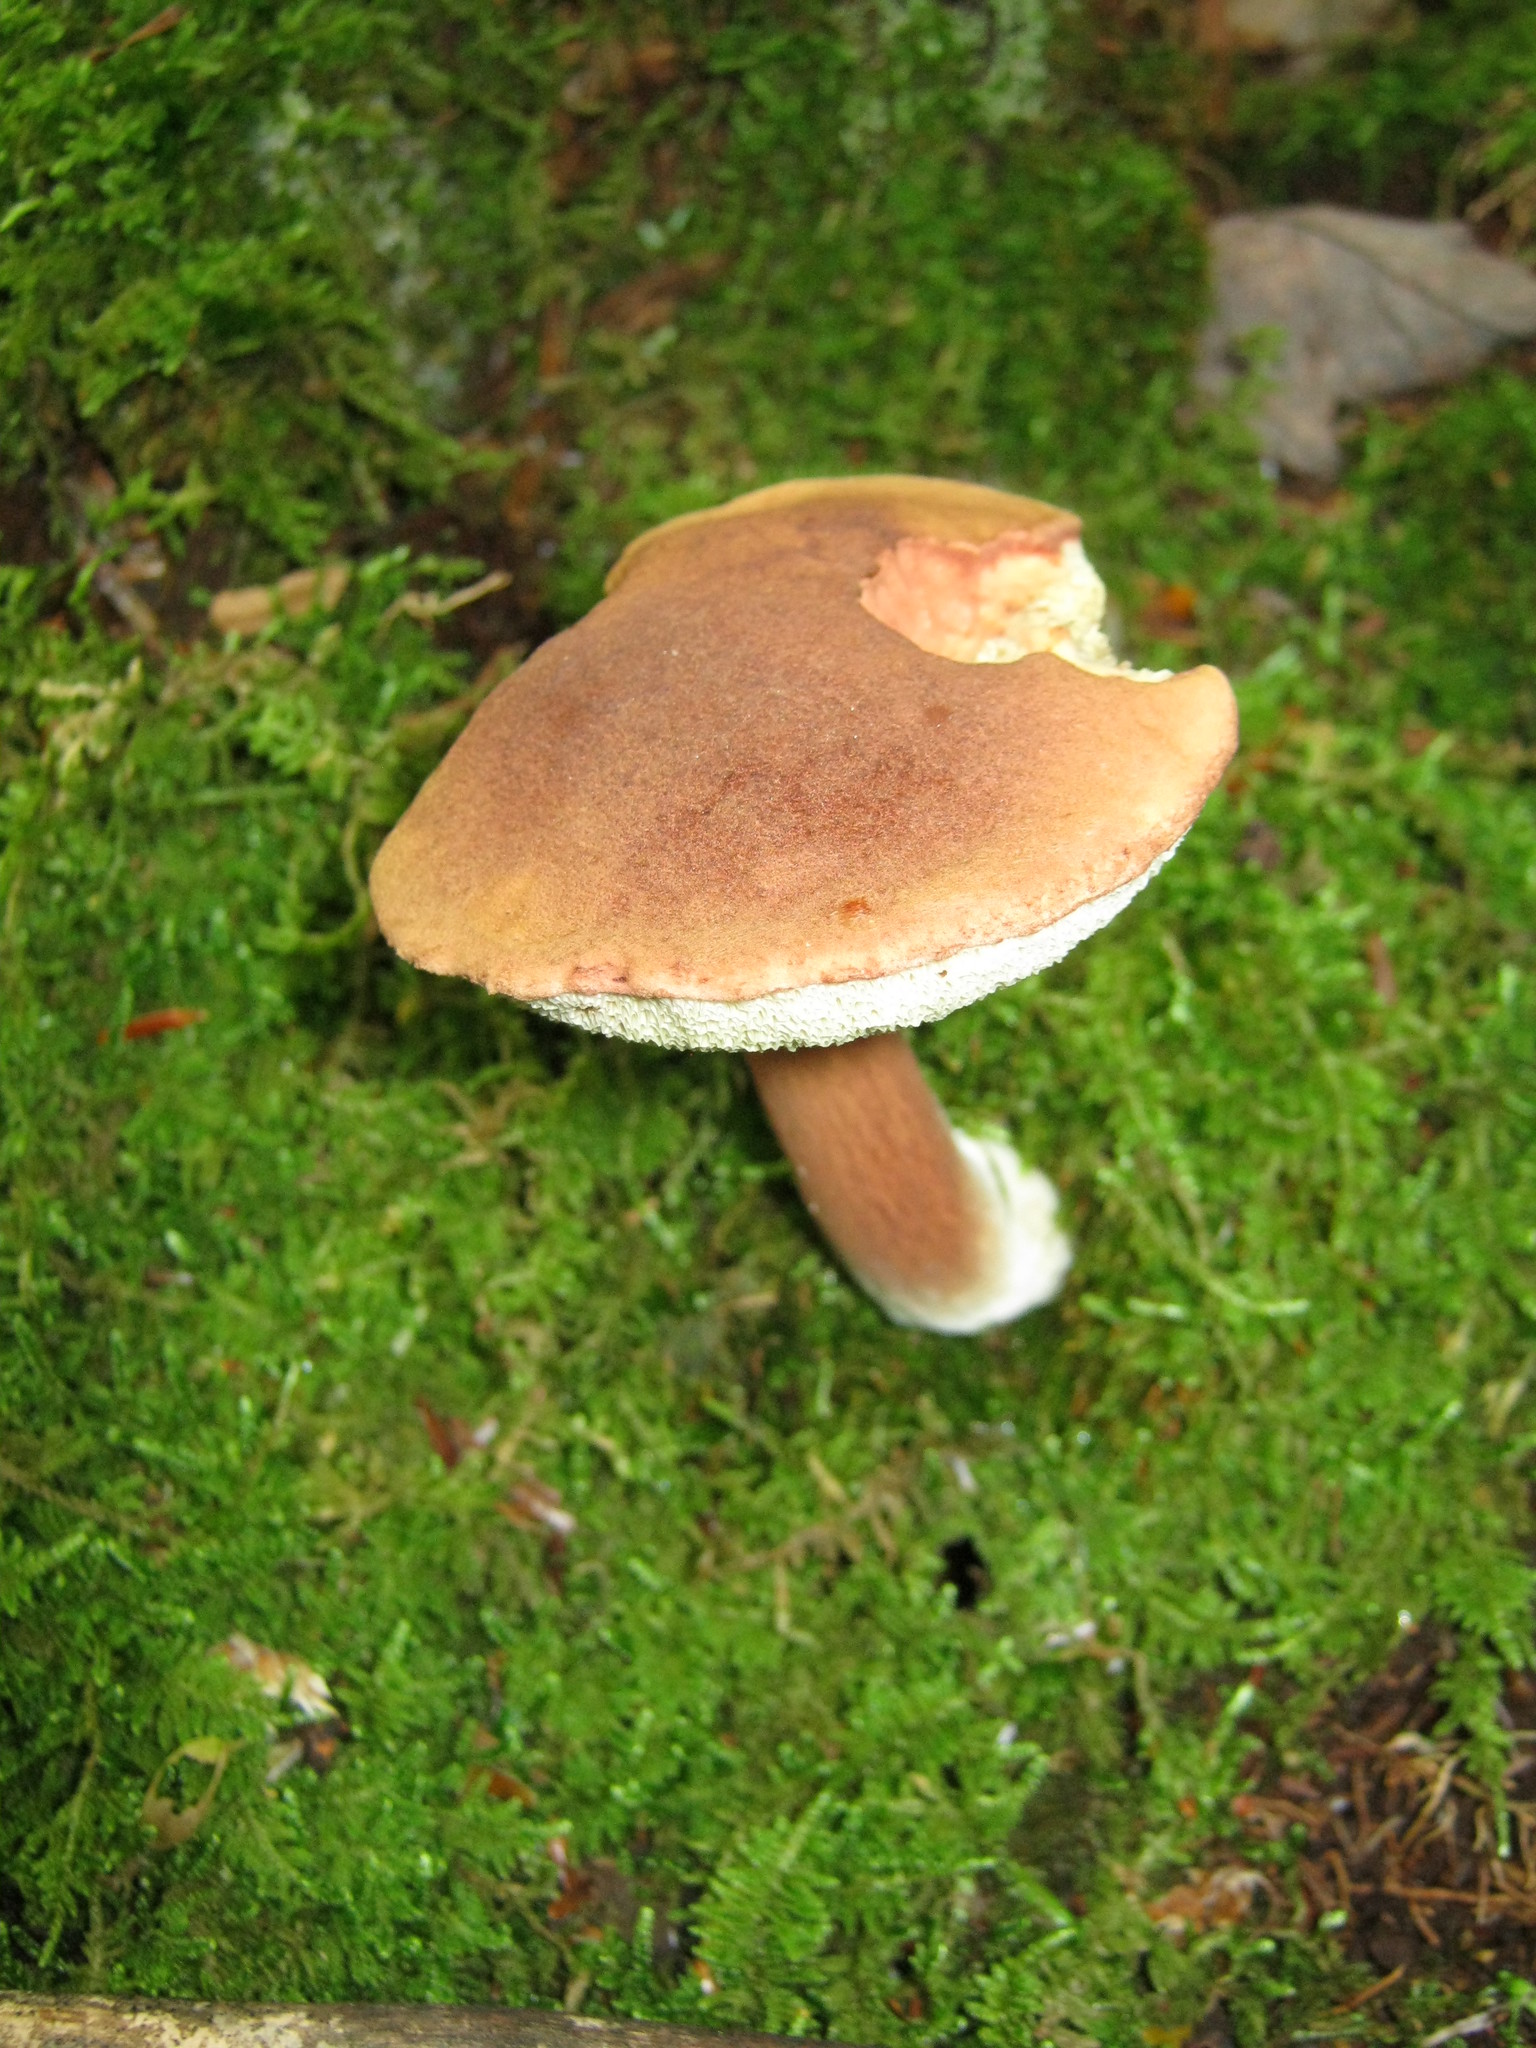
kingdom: Fungi
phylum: Basidiomycota
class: Agaricomycetes
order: Boletales
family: Boletaceae
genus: Imleria
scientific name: Imleria badia
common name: Bay bolete
